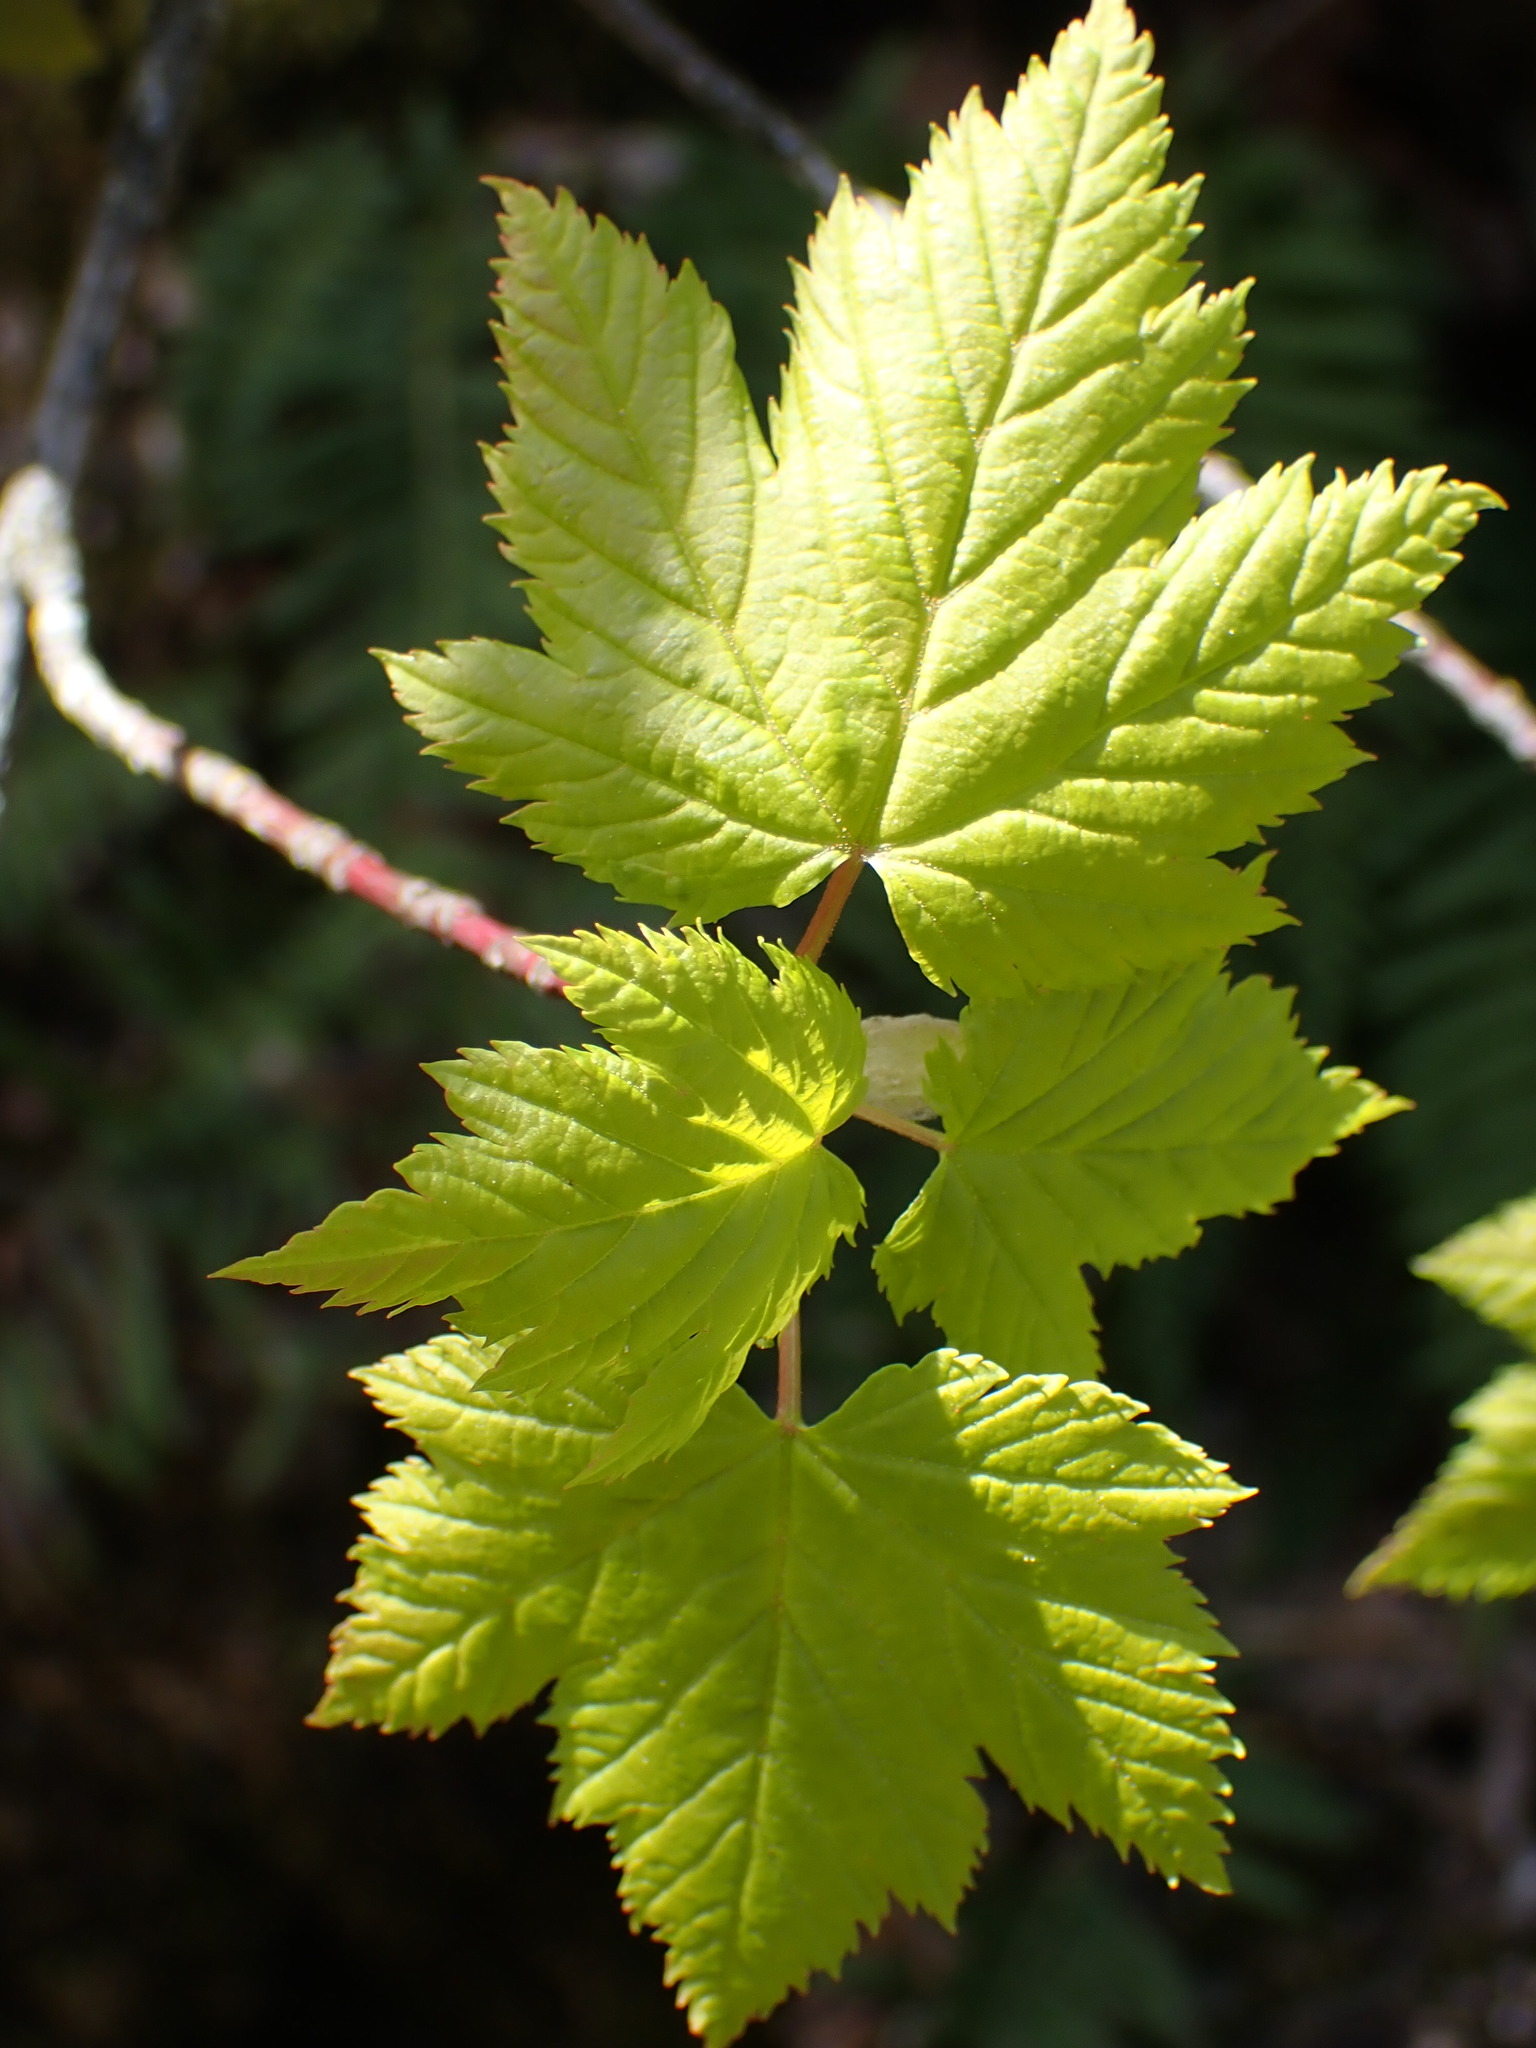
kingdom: Plantae
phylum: Tracheophyta
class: Magnoliopsida
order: Sapindales
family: Sapindaceae
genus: Acer
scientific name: Acer glabrum
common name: Rocky mountain maple
